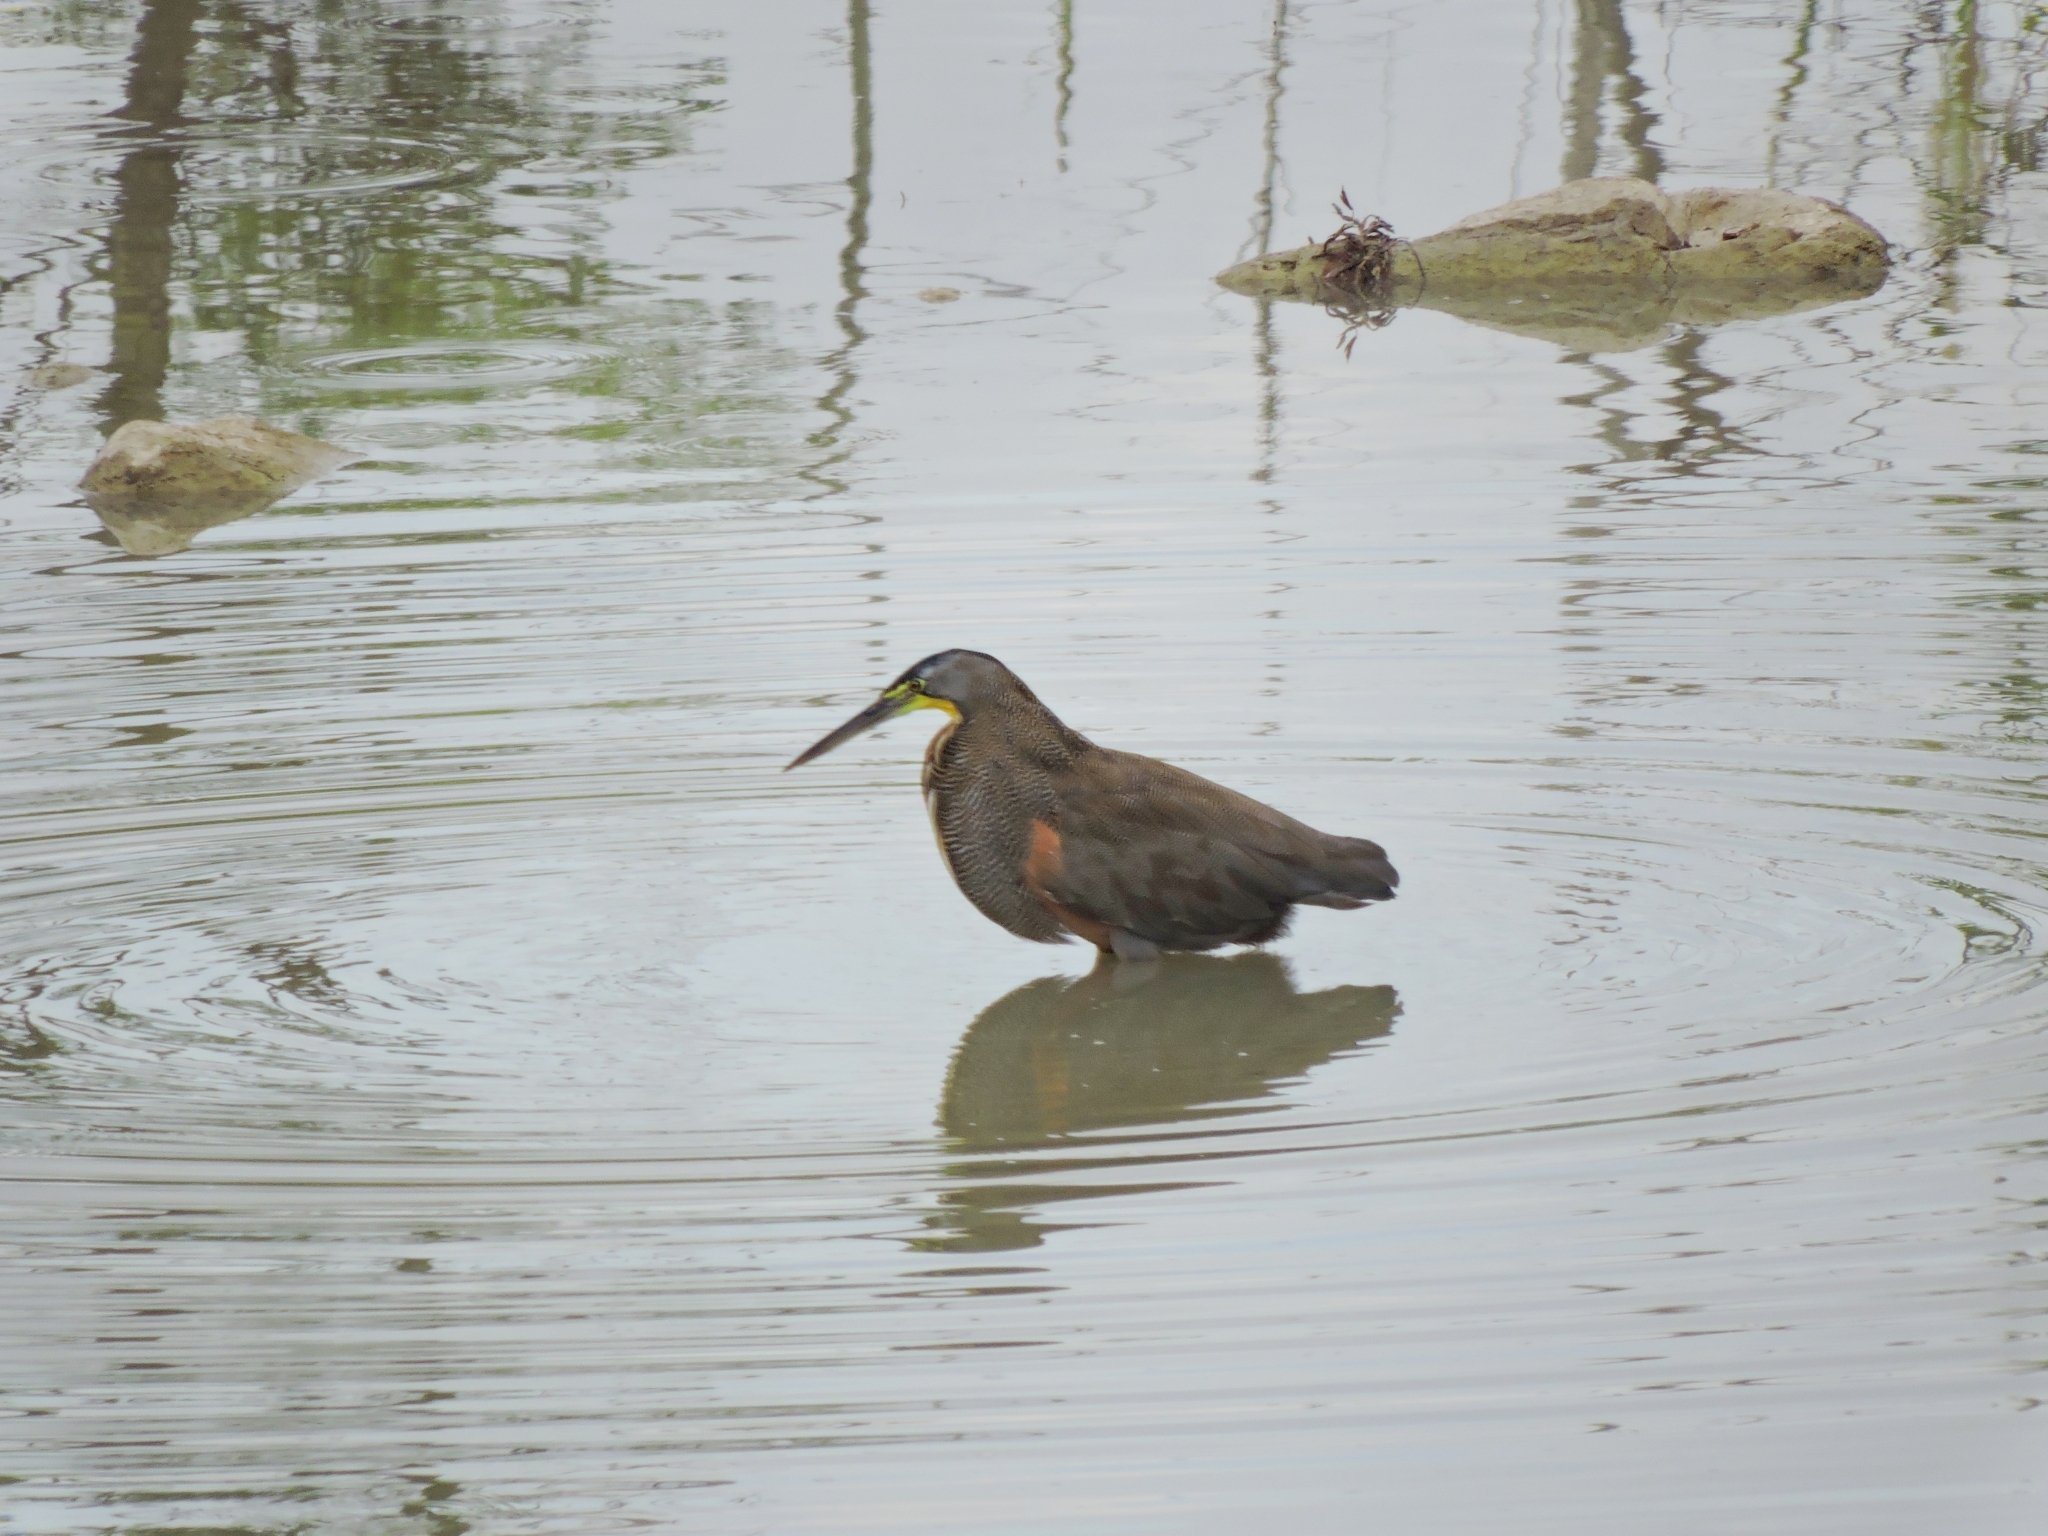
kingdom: Animalia
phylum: Chordata
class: Aves
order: Pelecaniformes
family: Ardeidae
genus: Tigrisoma
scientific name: Tigrisoma mexicanum
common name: Bare-throated tiger-heron
